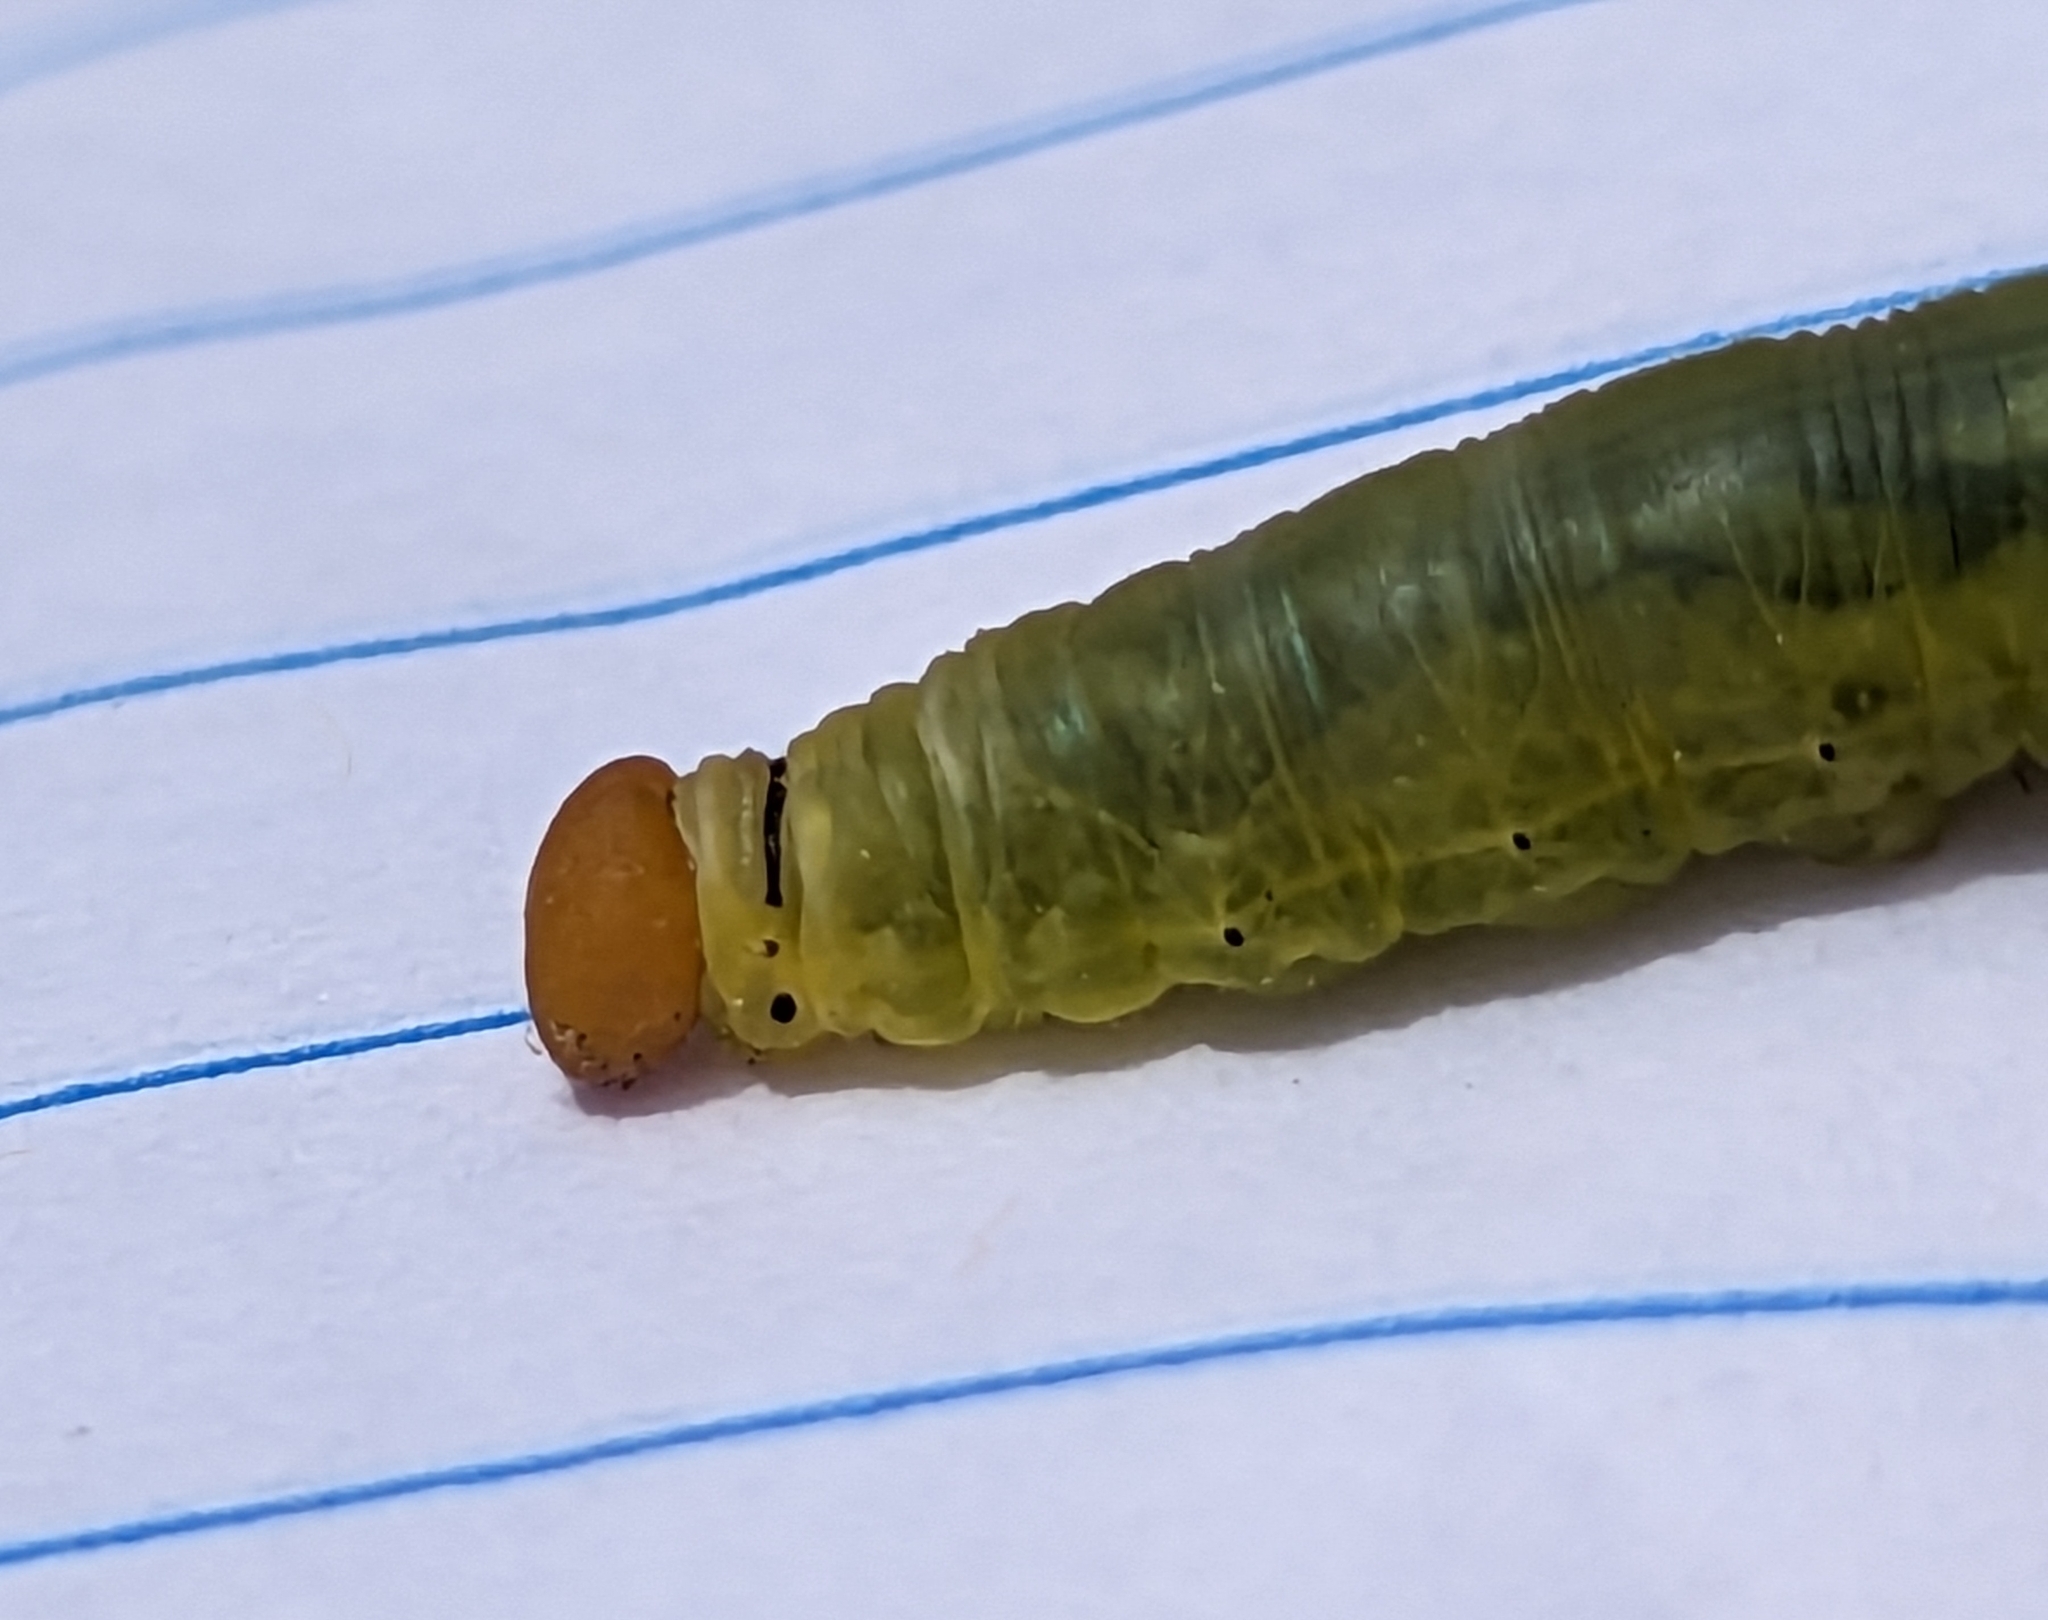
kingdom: Animalia
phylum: Arthropoda
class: Insecta
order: Lepidoptera
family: Hesperiidae
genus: Asbolis
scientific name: Asbolis capucinus
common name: Monk skipper
